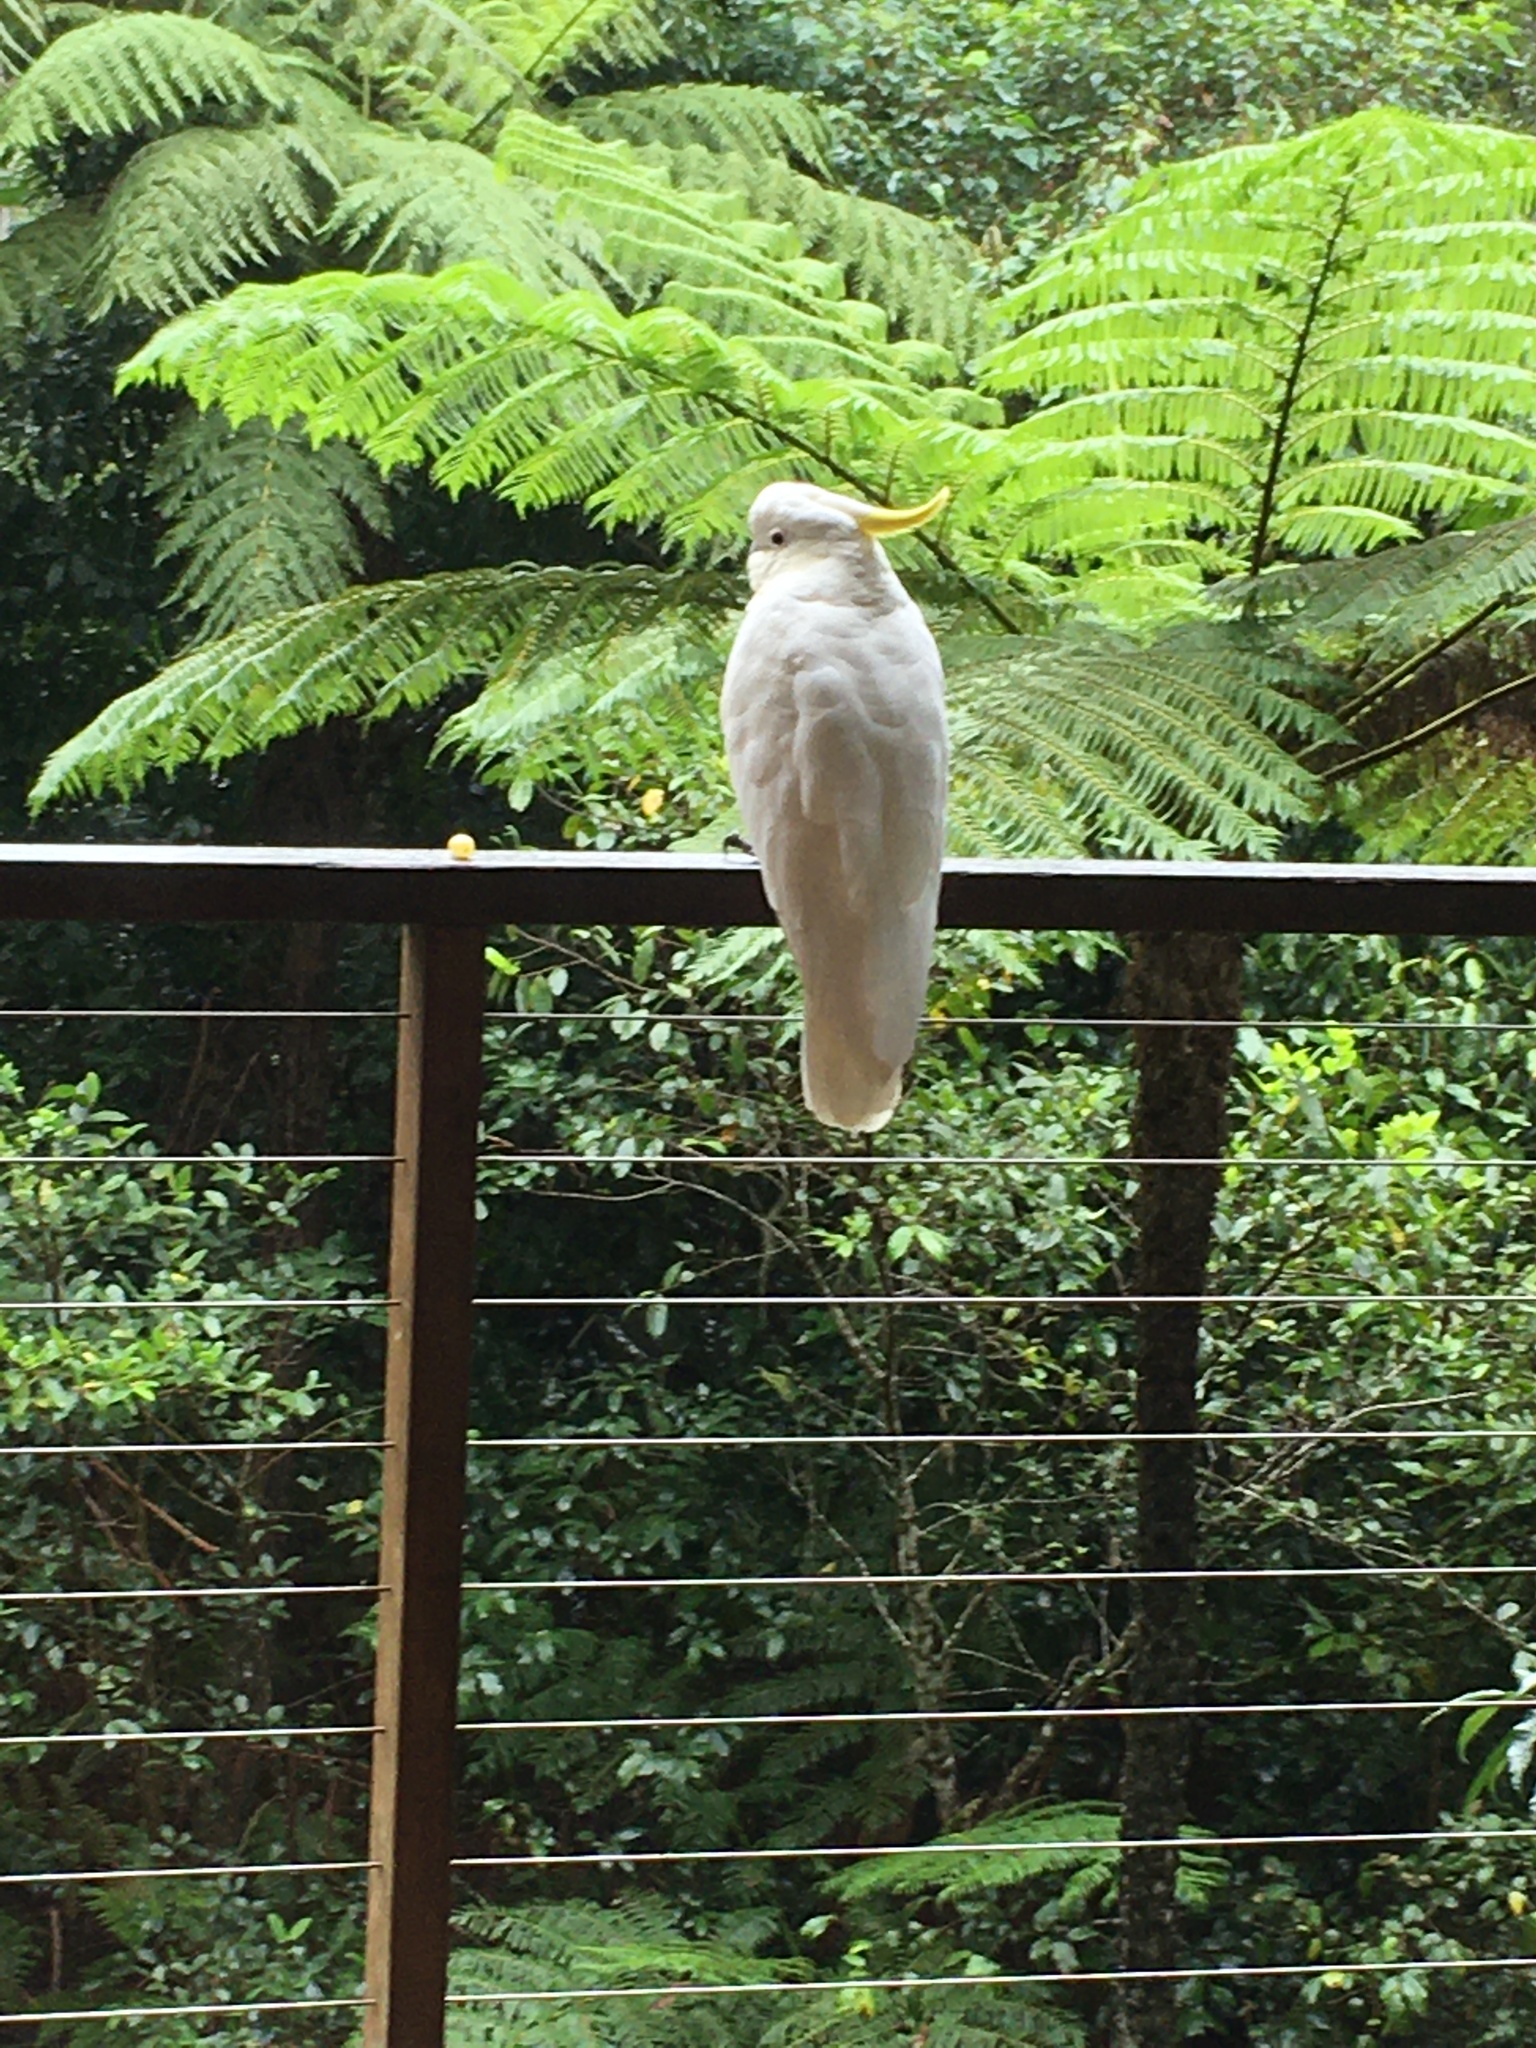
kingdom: Animalia
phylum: Chordata
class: Aves
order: Psittaciformes
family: Psittacidae
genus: Cacatua
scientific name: Cacatua galerita
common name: Sulphur-crested cockatoo
